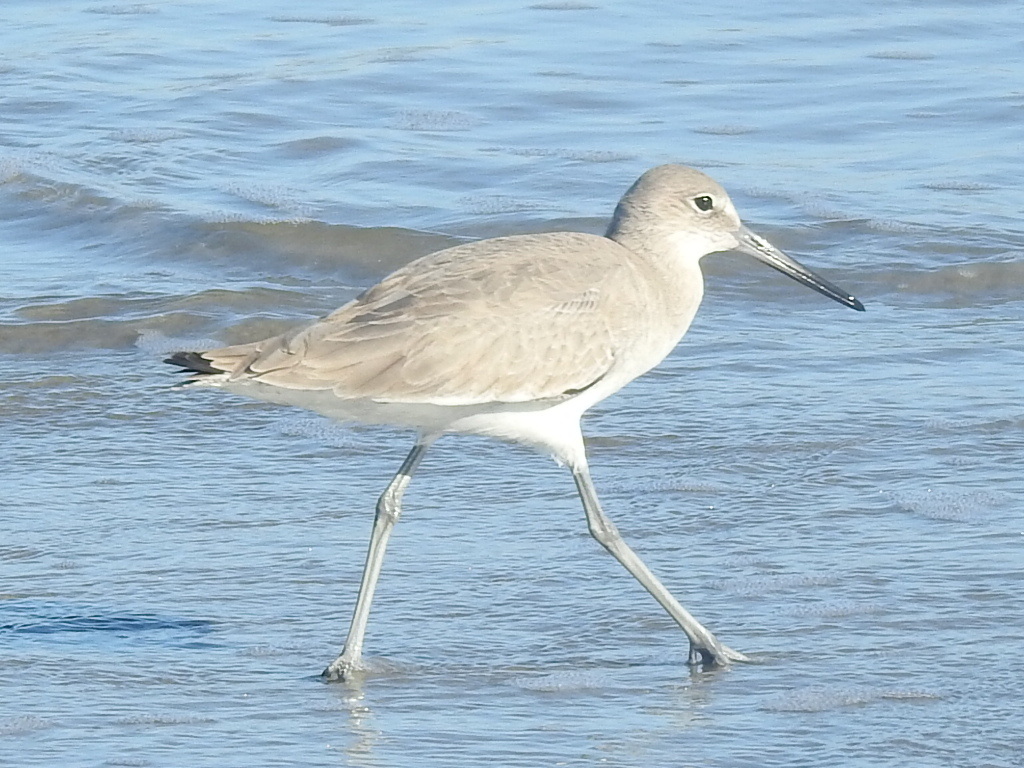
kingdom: Animalia
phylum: Chordata
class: Aves
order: Charadriiformes
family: Scolopacidae
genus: Tringa
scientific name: Tringa semipalmata
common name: Willet
